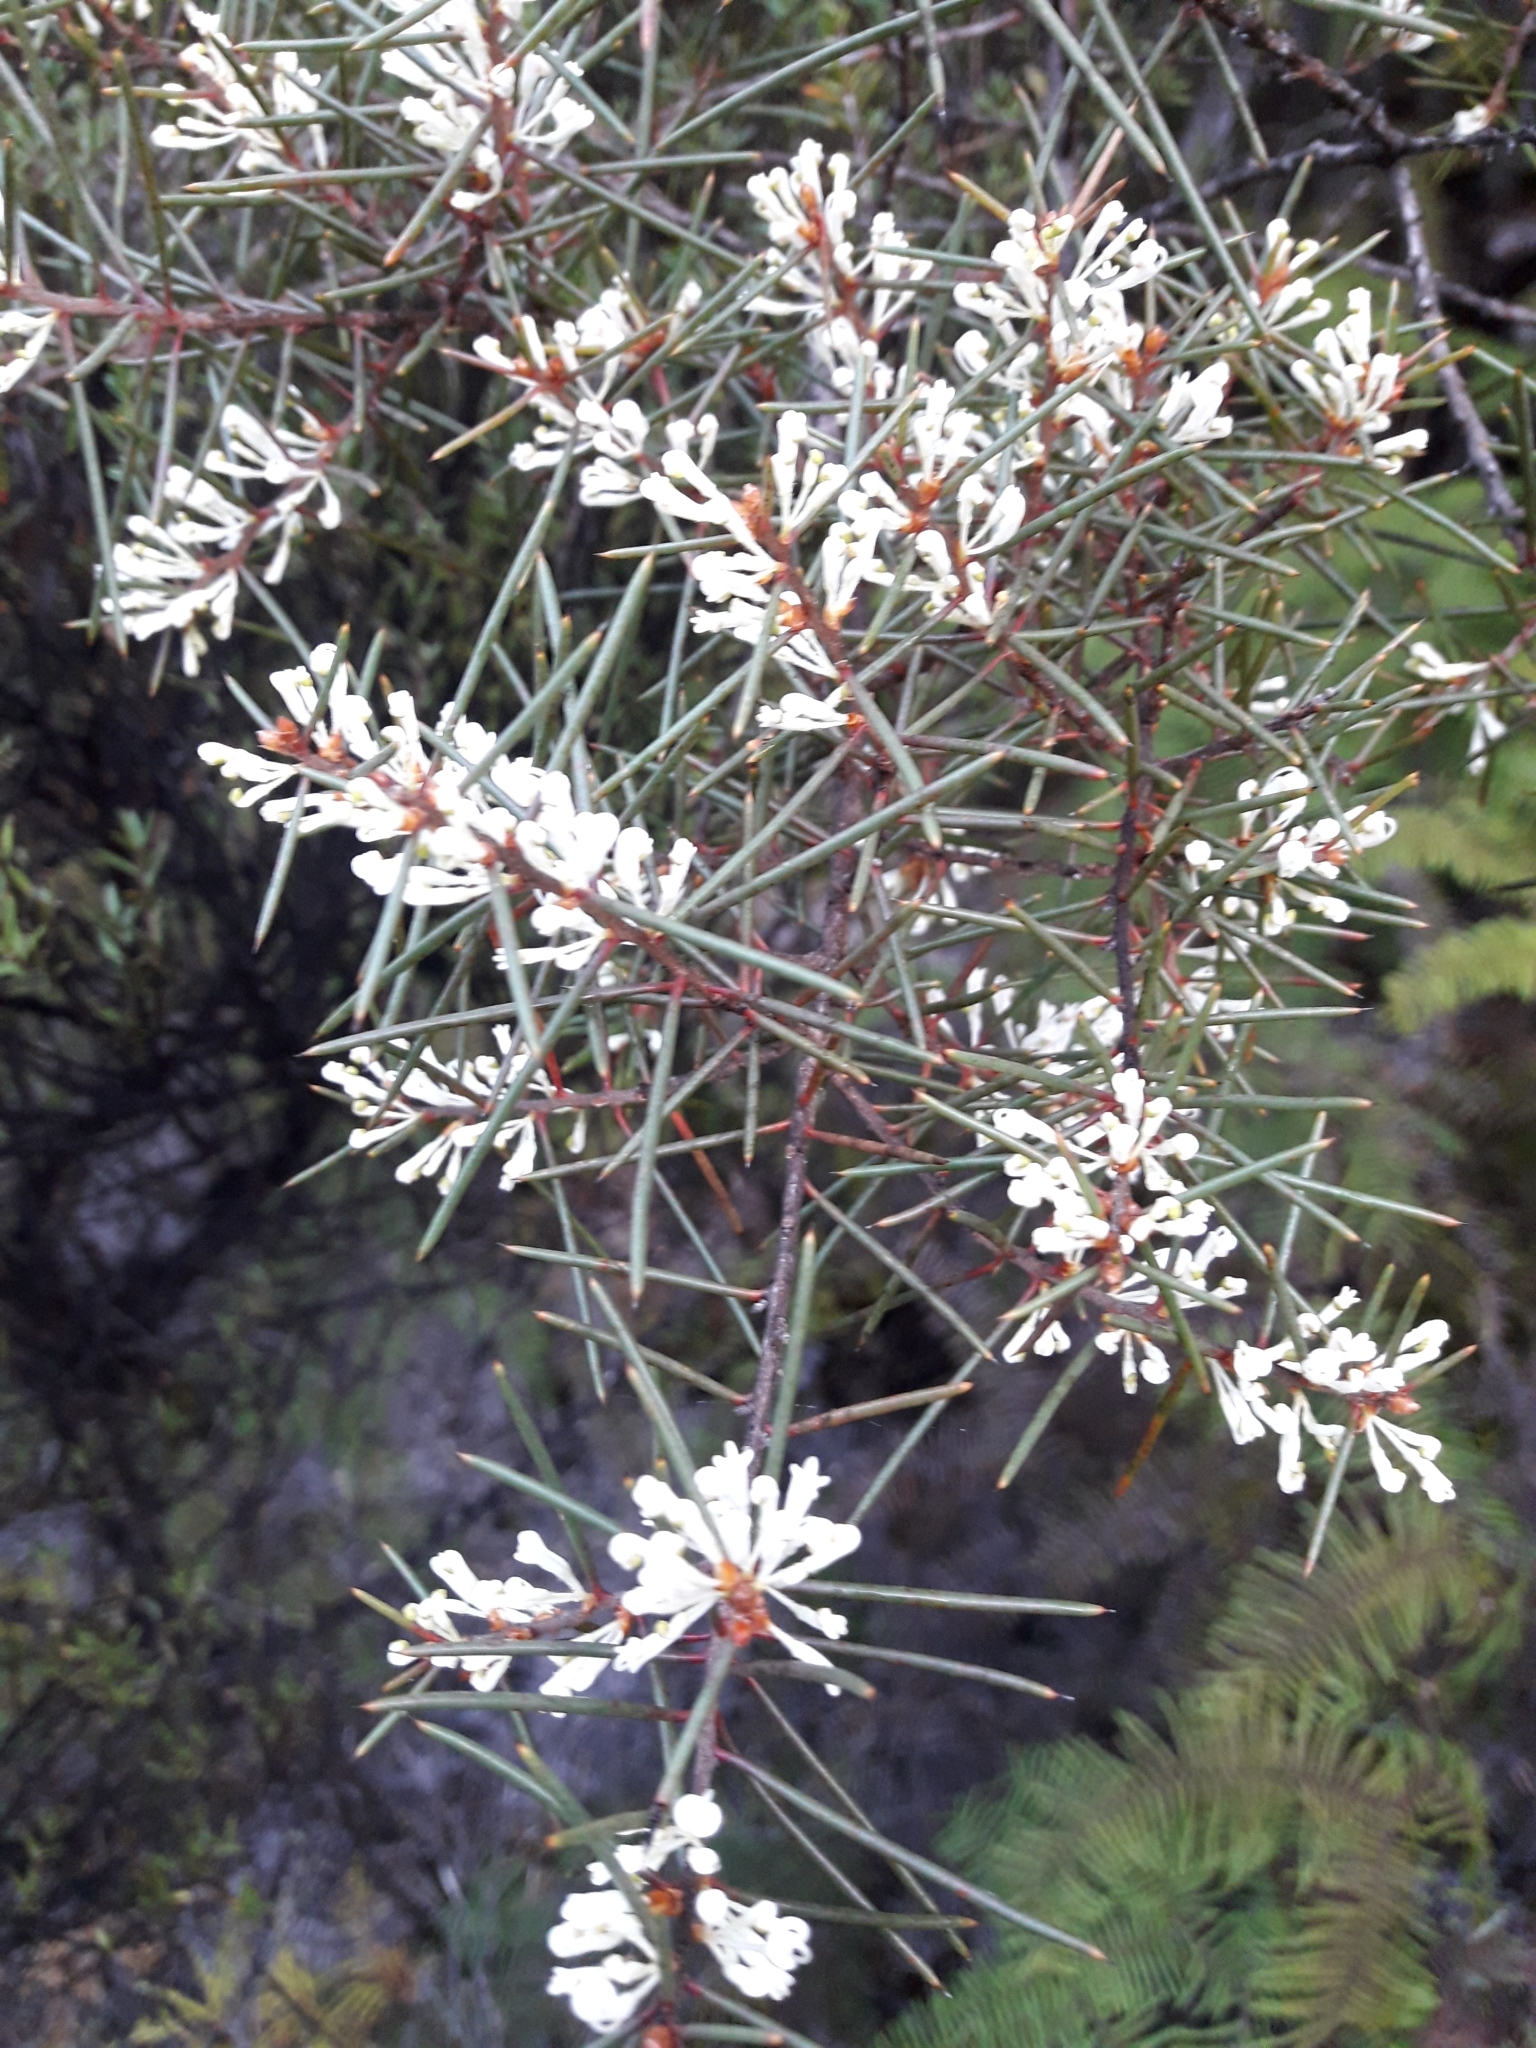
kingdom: Plantae
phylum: Tracheophyta
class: Magnoliopsida
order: Proteales
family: Proteaceae
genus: Hakea
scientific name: Hakea sericea
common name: Needle bush
